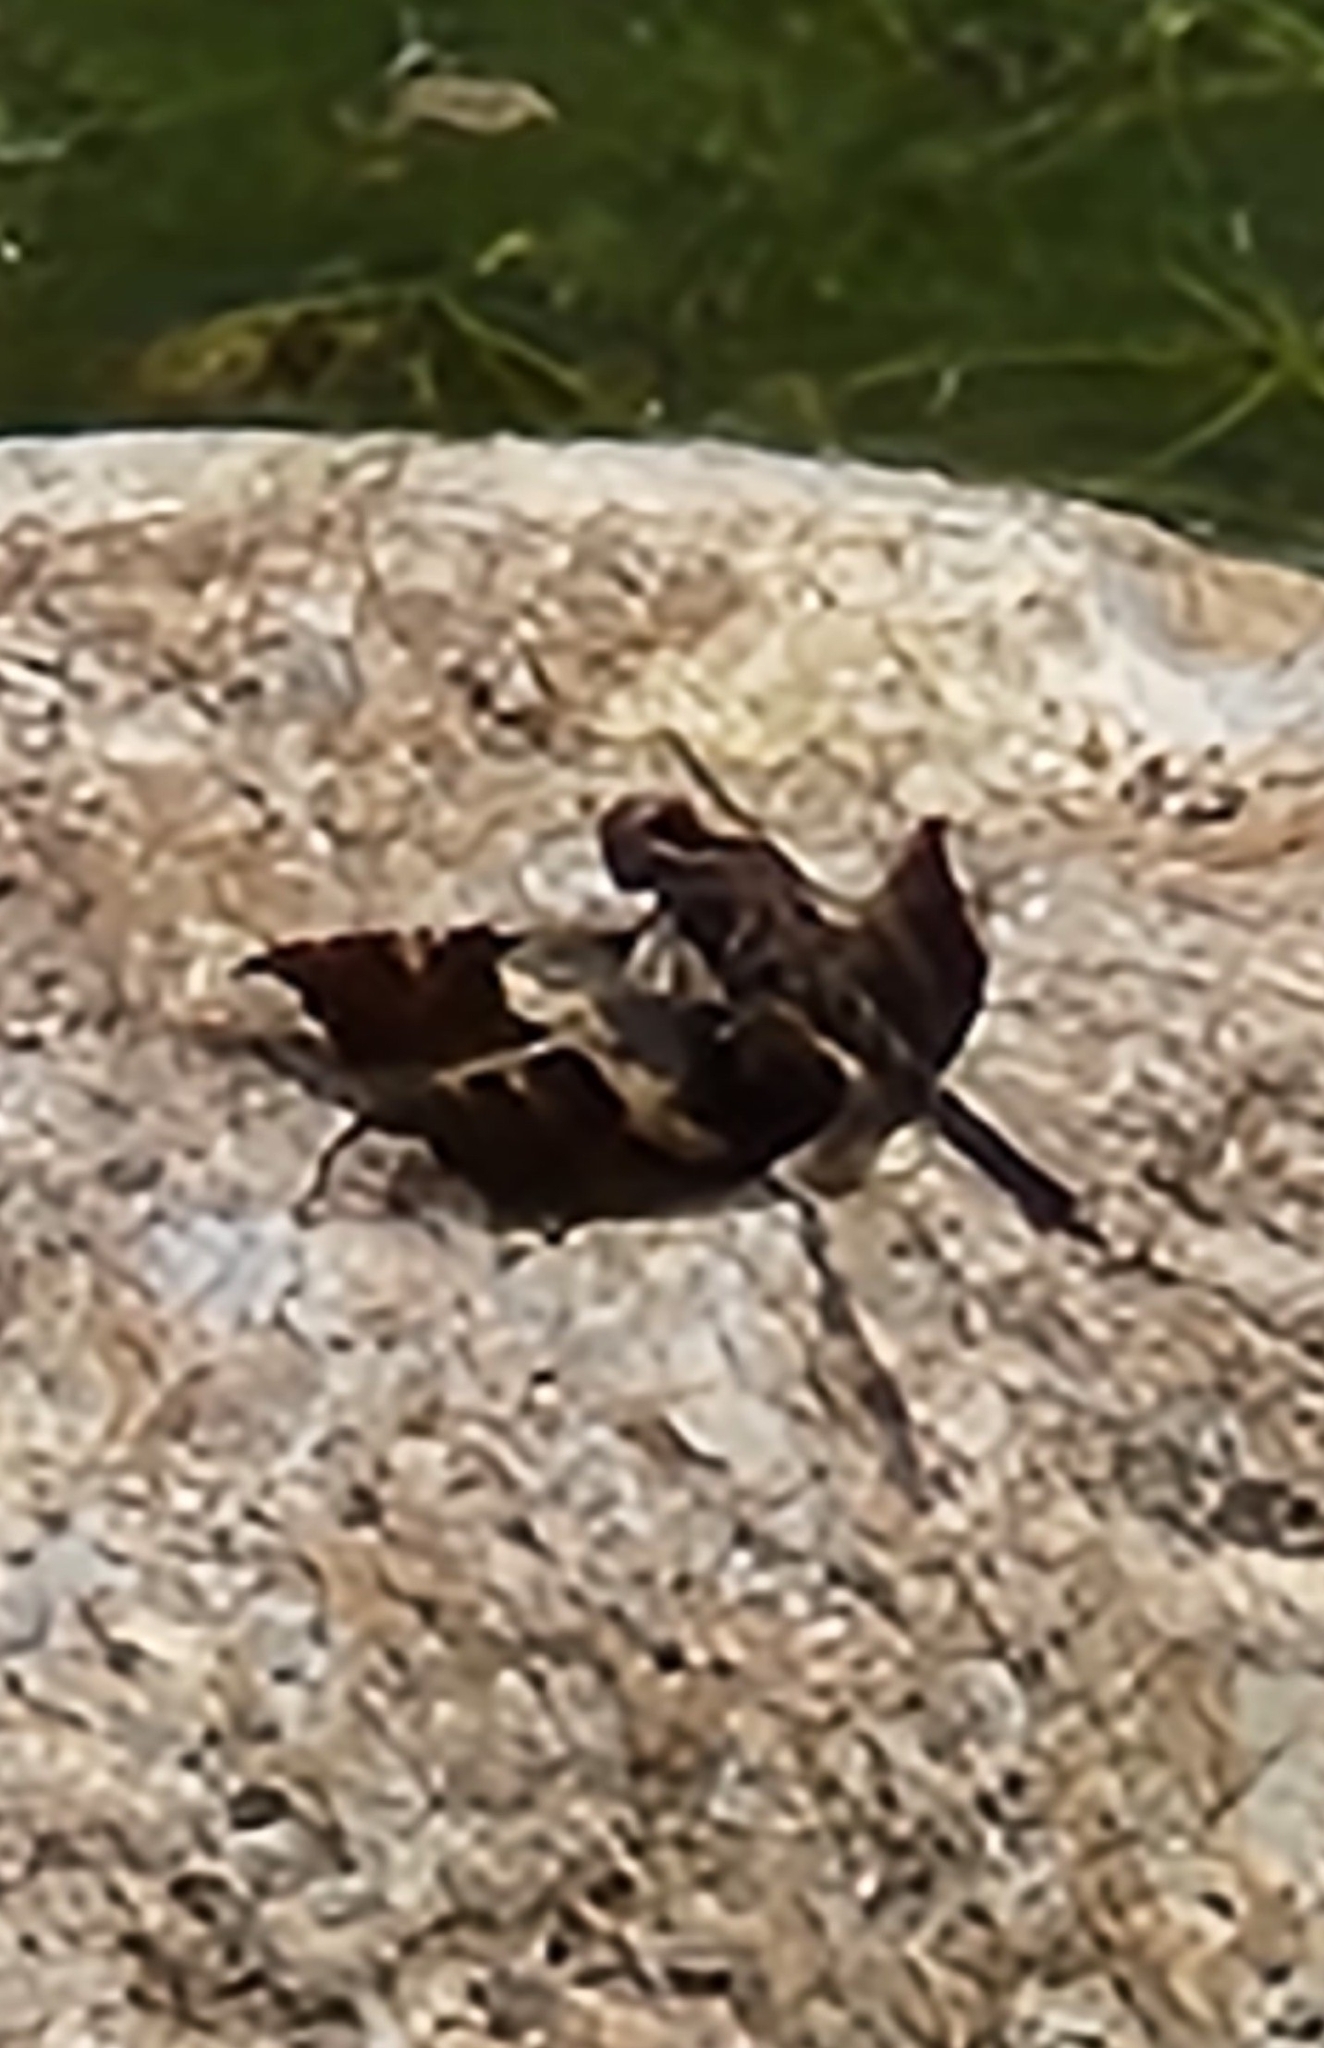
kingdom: Animalia
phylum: Arthropoda
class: Insecta
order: Odonata
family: Libellulidae
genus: Pseudoleon
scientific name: Pseudoleon superbus
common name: Filigree skimmer
